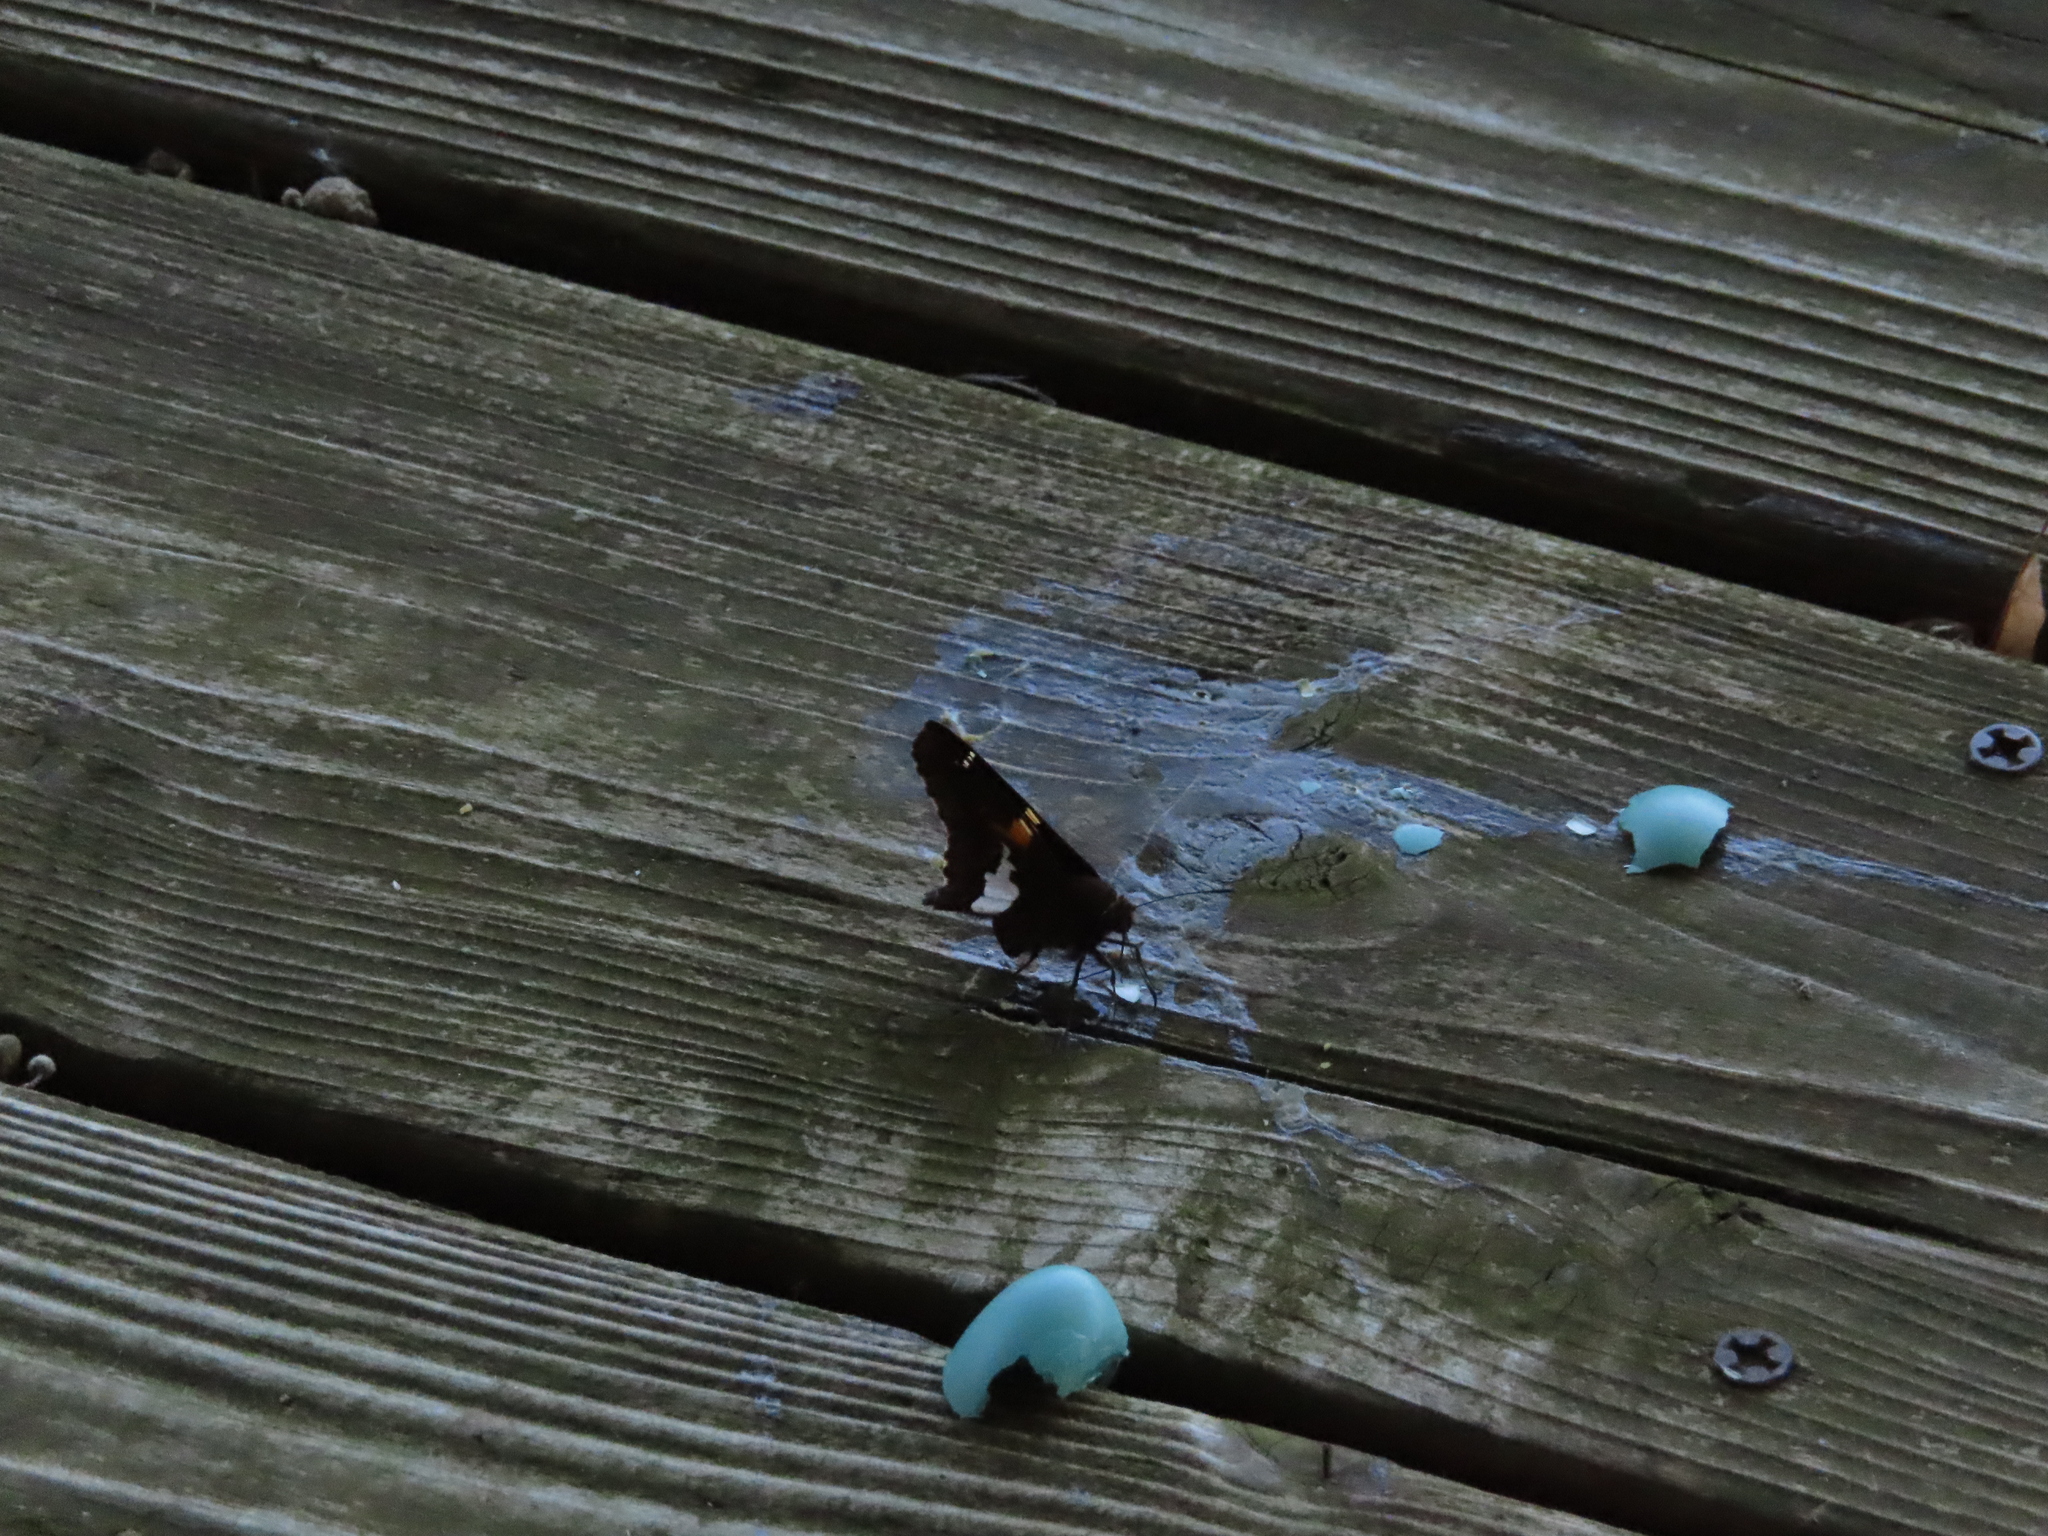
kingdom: Animalia
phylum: Chordata
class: Aves
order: Passeriformes
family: Turdidae
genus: Turdus
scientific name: Turdus migratorius
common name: American robin
